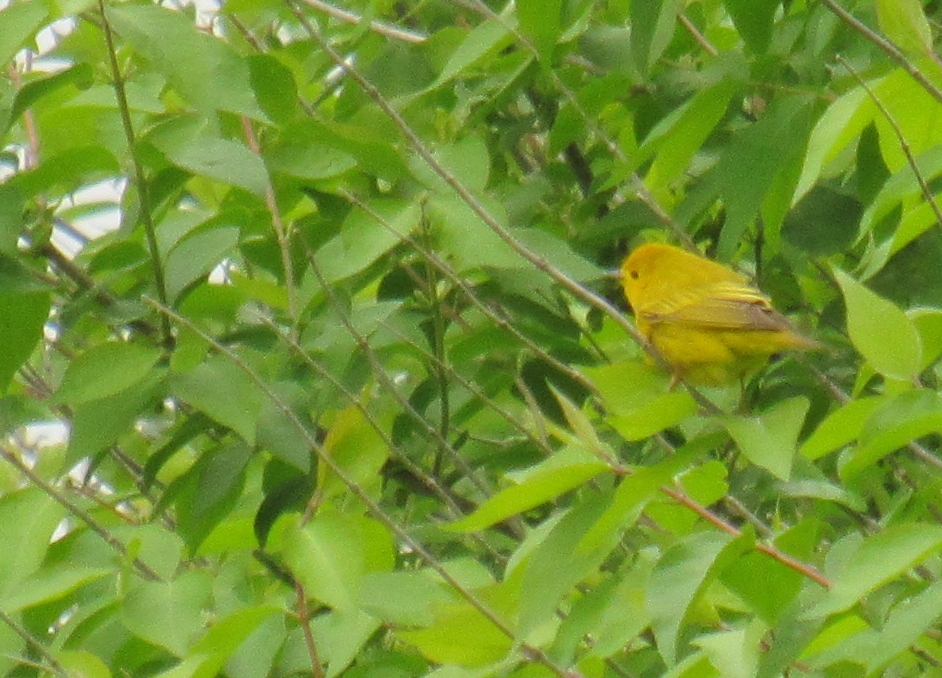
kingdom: Animalia
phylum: Chordata
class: Aves
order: Passeriformes
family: Parulidae
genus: Setophaga
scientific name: Setophaga petechia
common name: Yellow warbler
